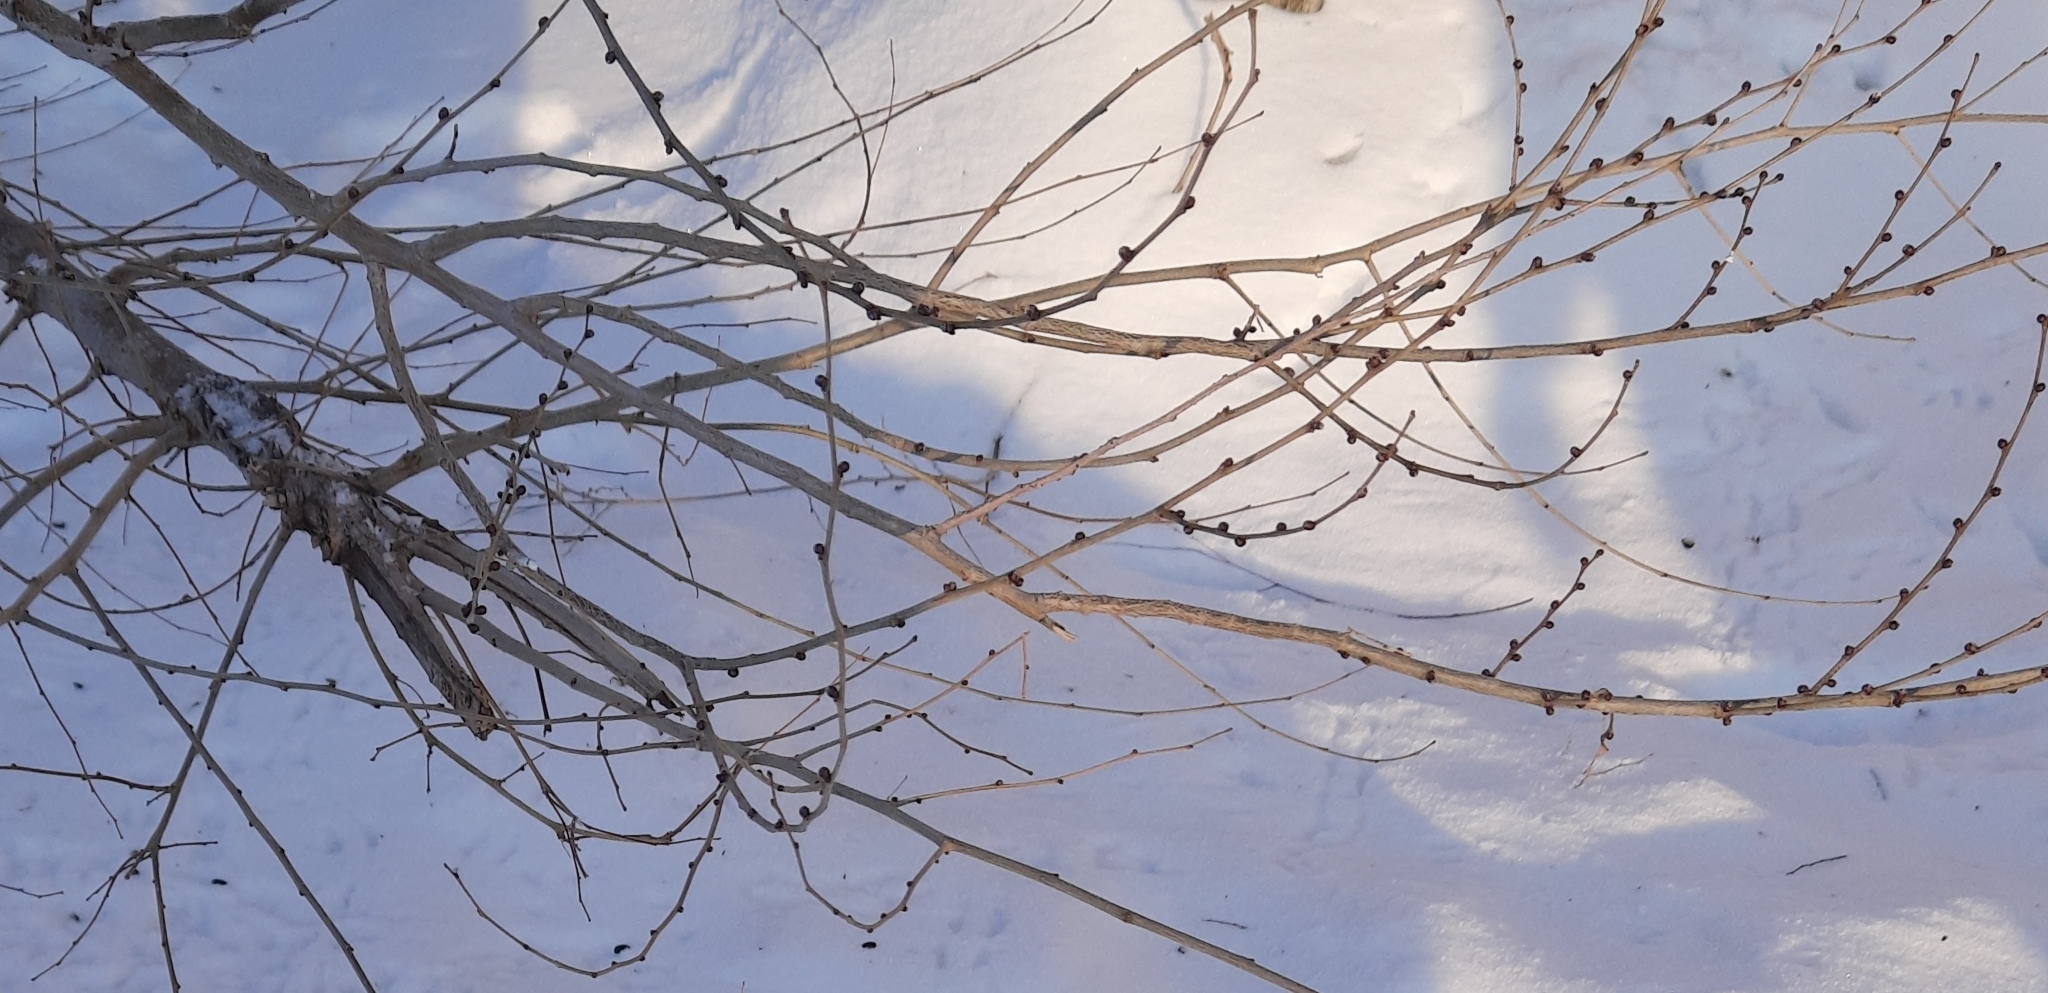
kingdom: Plantae
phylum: Tracheophyta
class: Magnoliopsida
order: Rosales
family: Ulmaceae
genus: Ulmus
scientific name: Ulmus pumila
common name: Siberian elm
